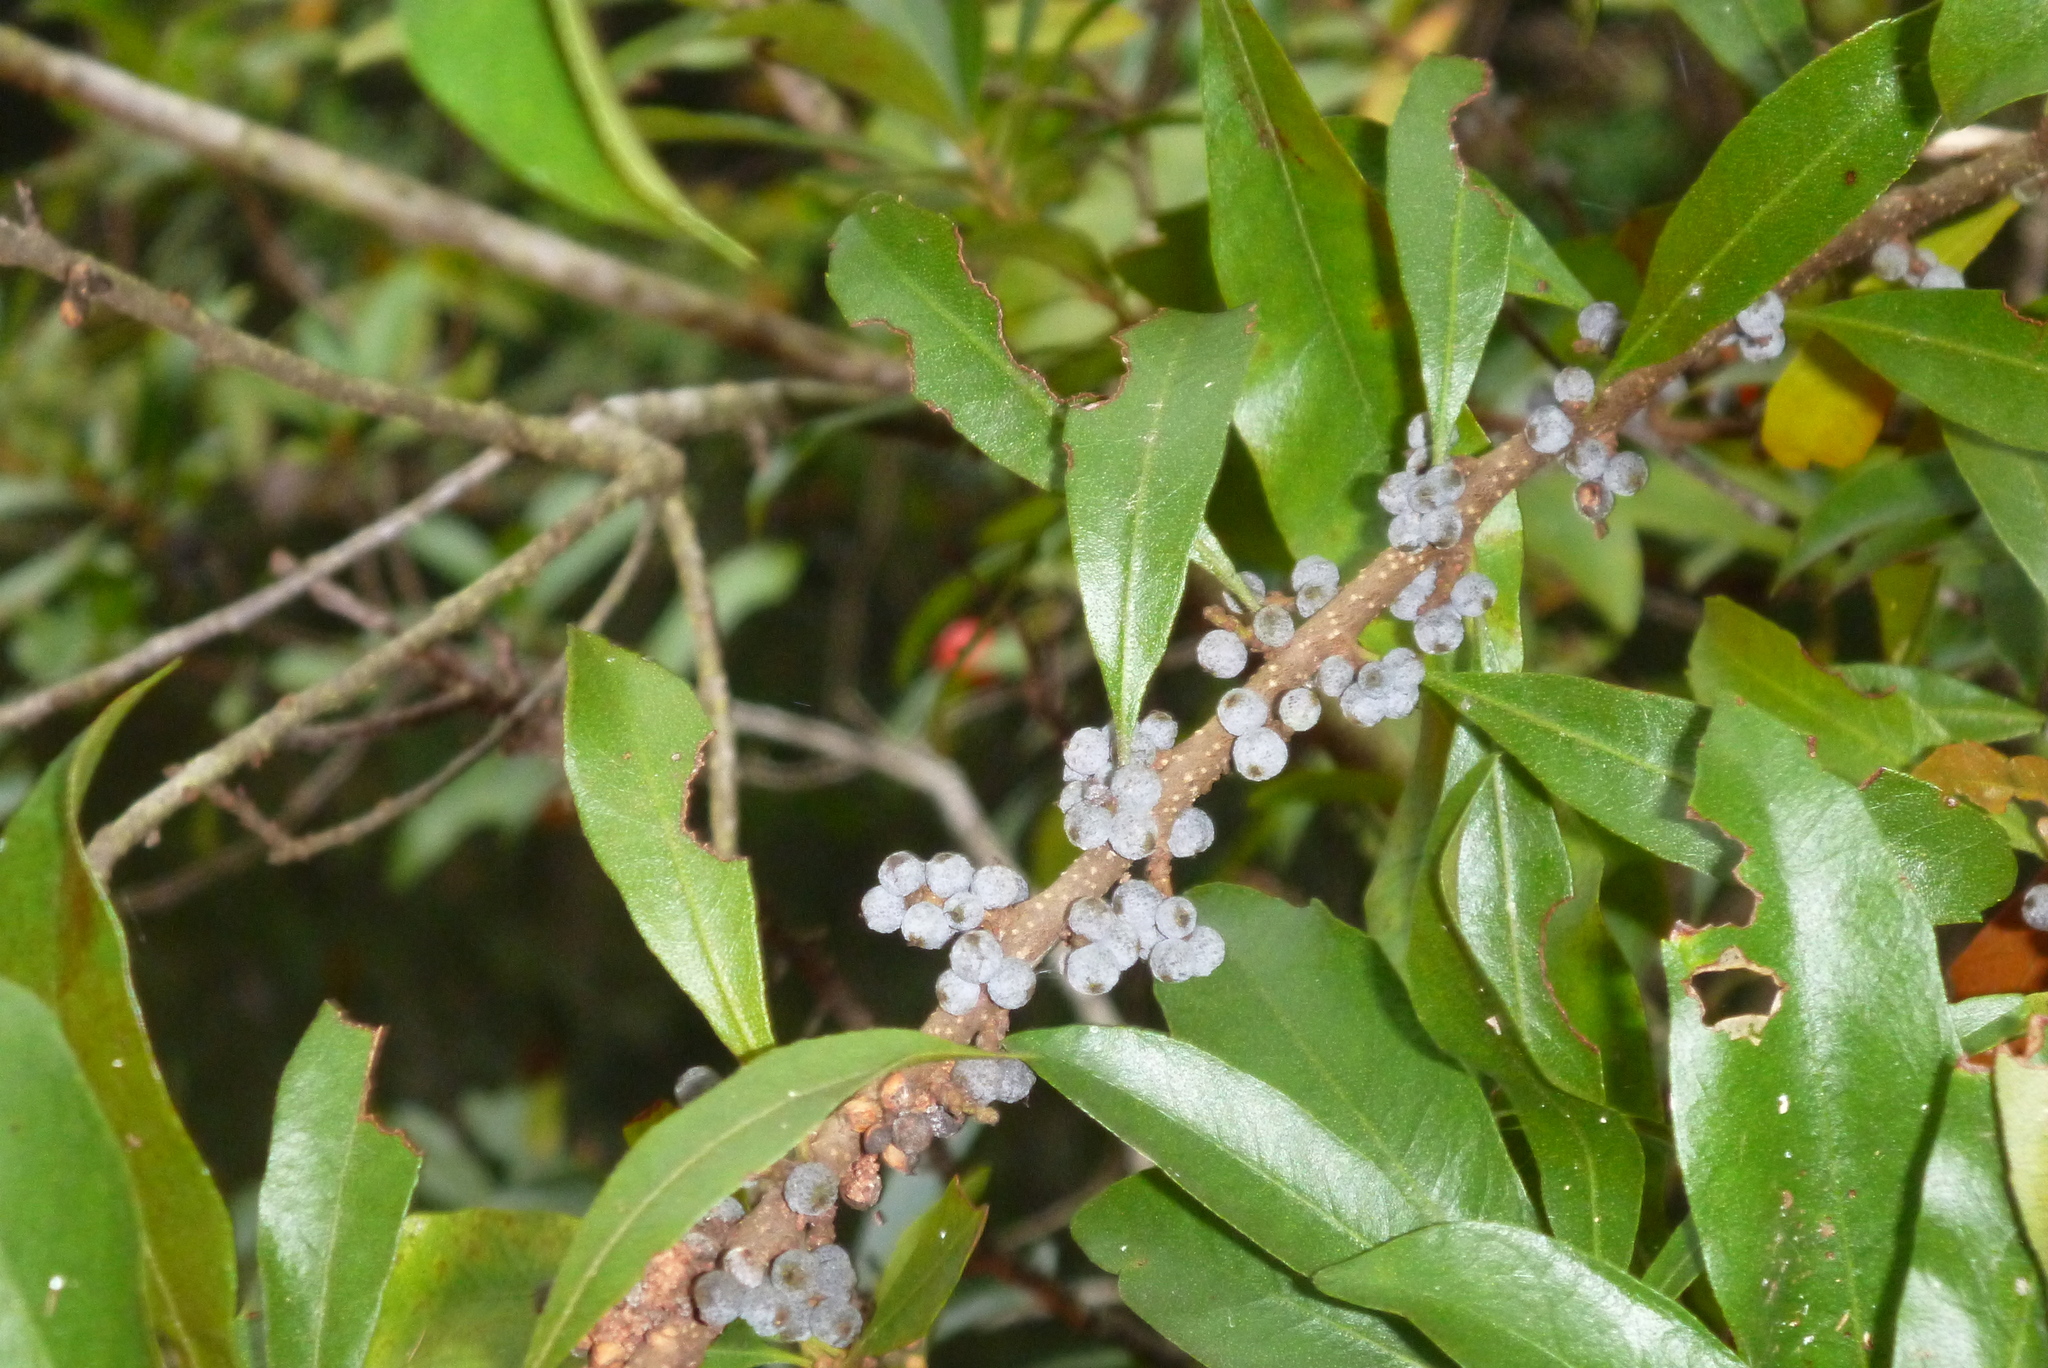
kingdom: Plantae
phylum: Tracheophyta
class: Magnoliopsida
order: Fagales
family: Myricaceae
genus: Morella
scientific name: Morella cerifera
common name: Wax myrtle
